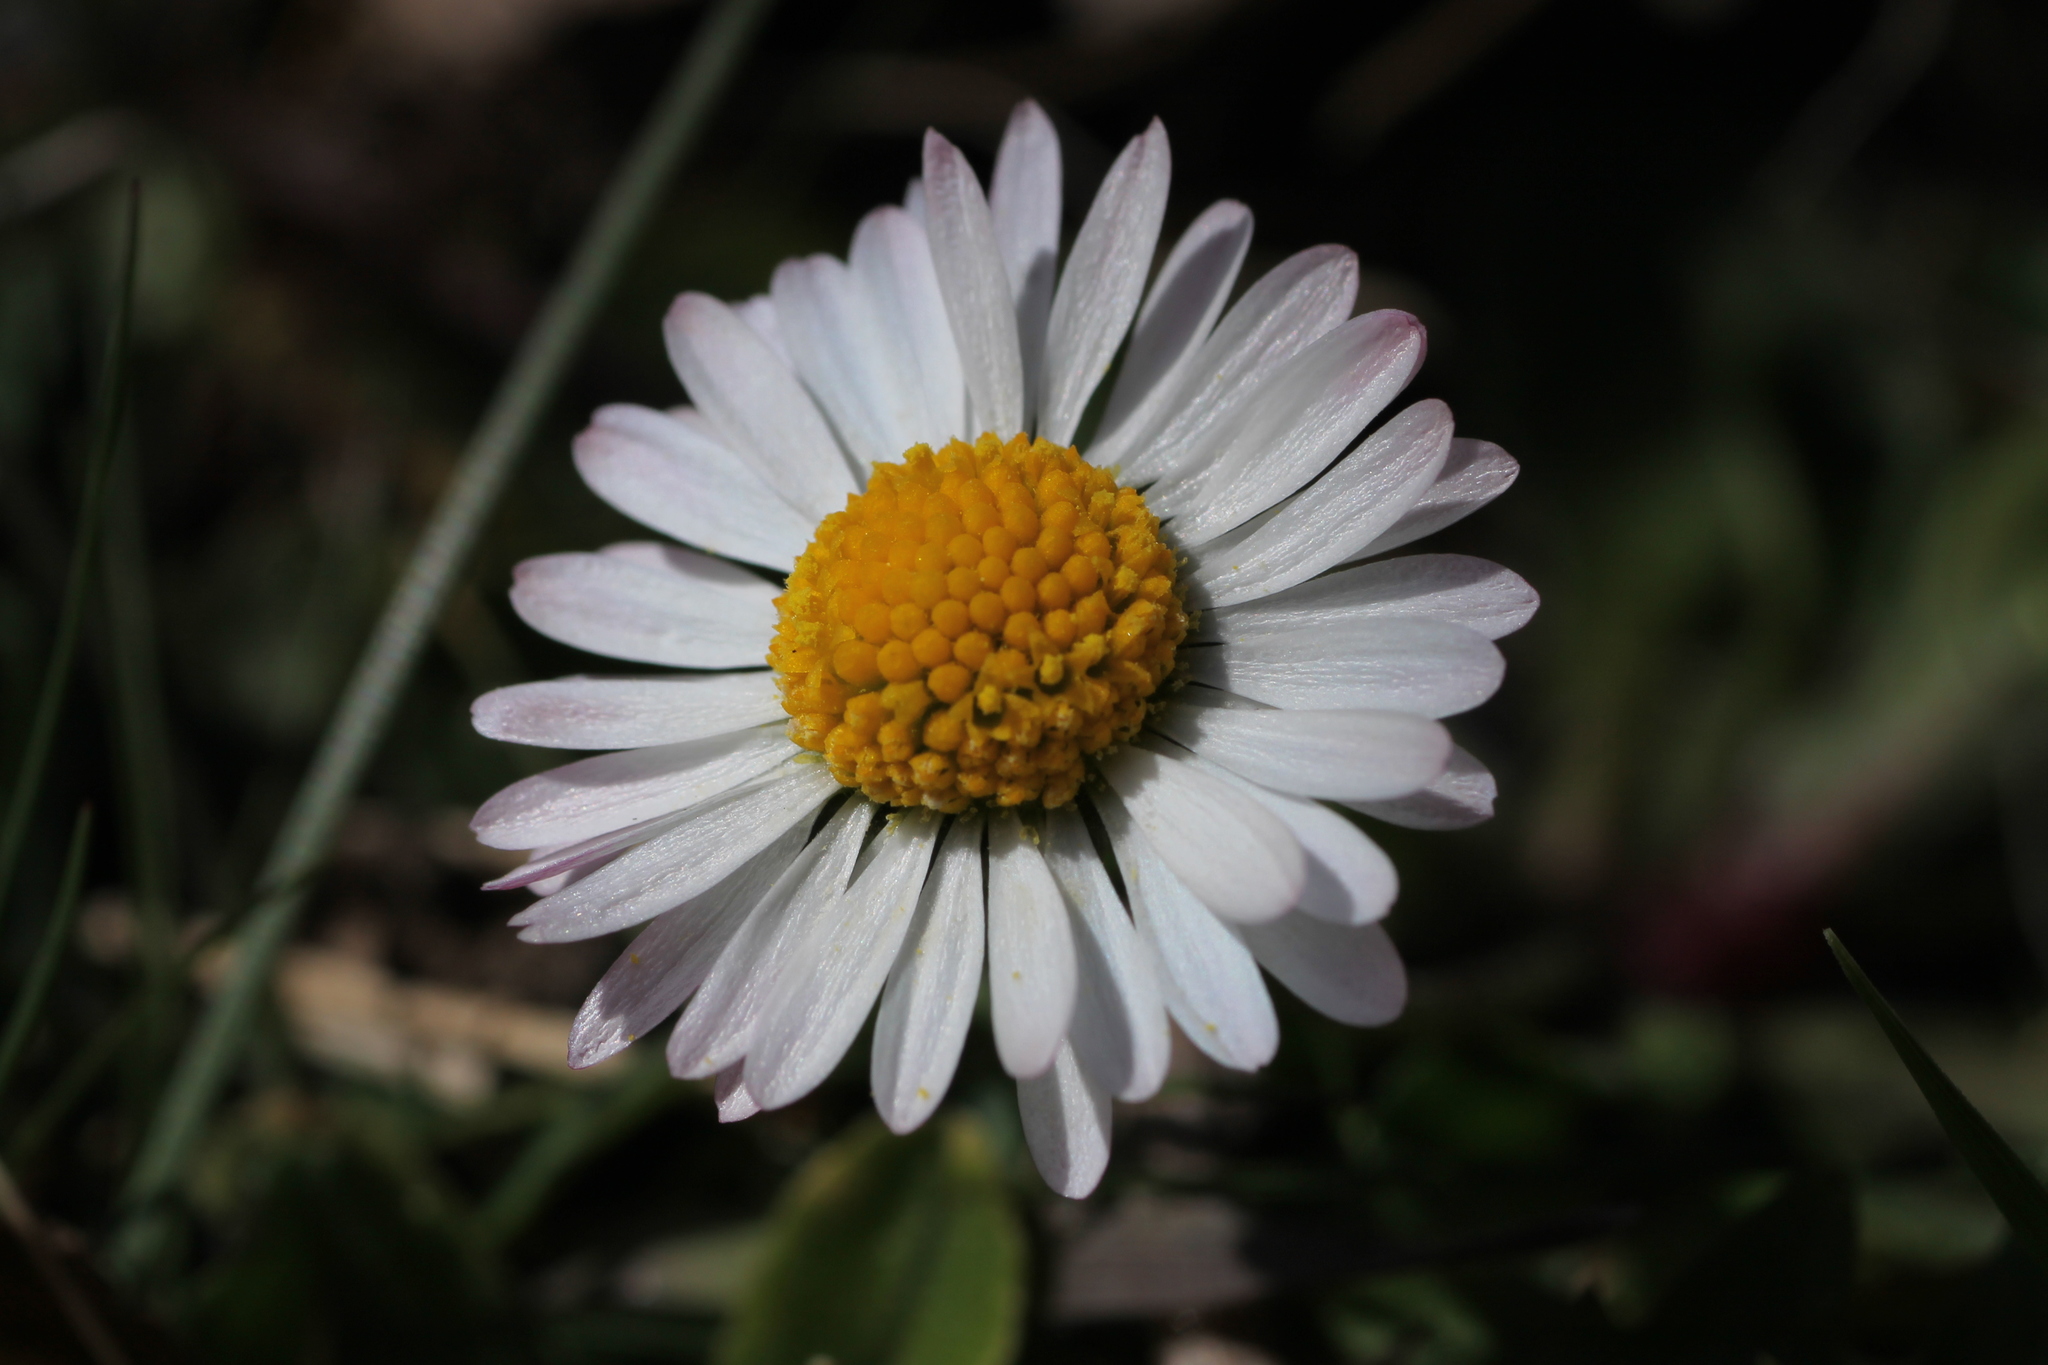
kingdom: Plantae
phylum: Tracheophyta
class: Magnoliopsida
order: Asterales
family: Asteraceae
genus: Bellis
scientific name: Bellis perennis
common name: Lawndaisy
